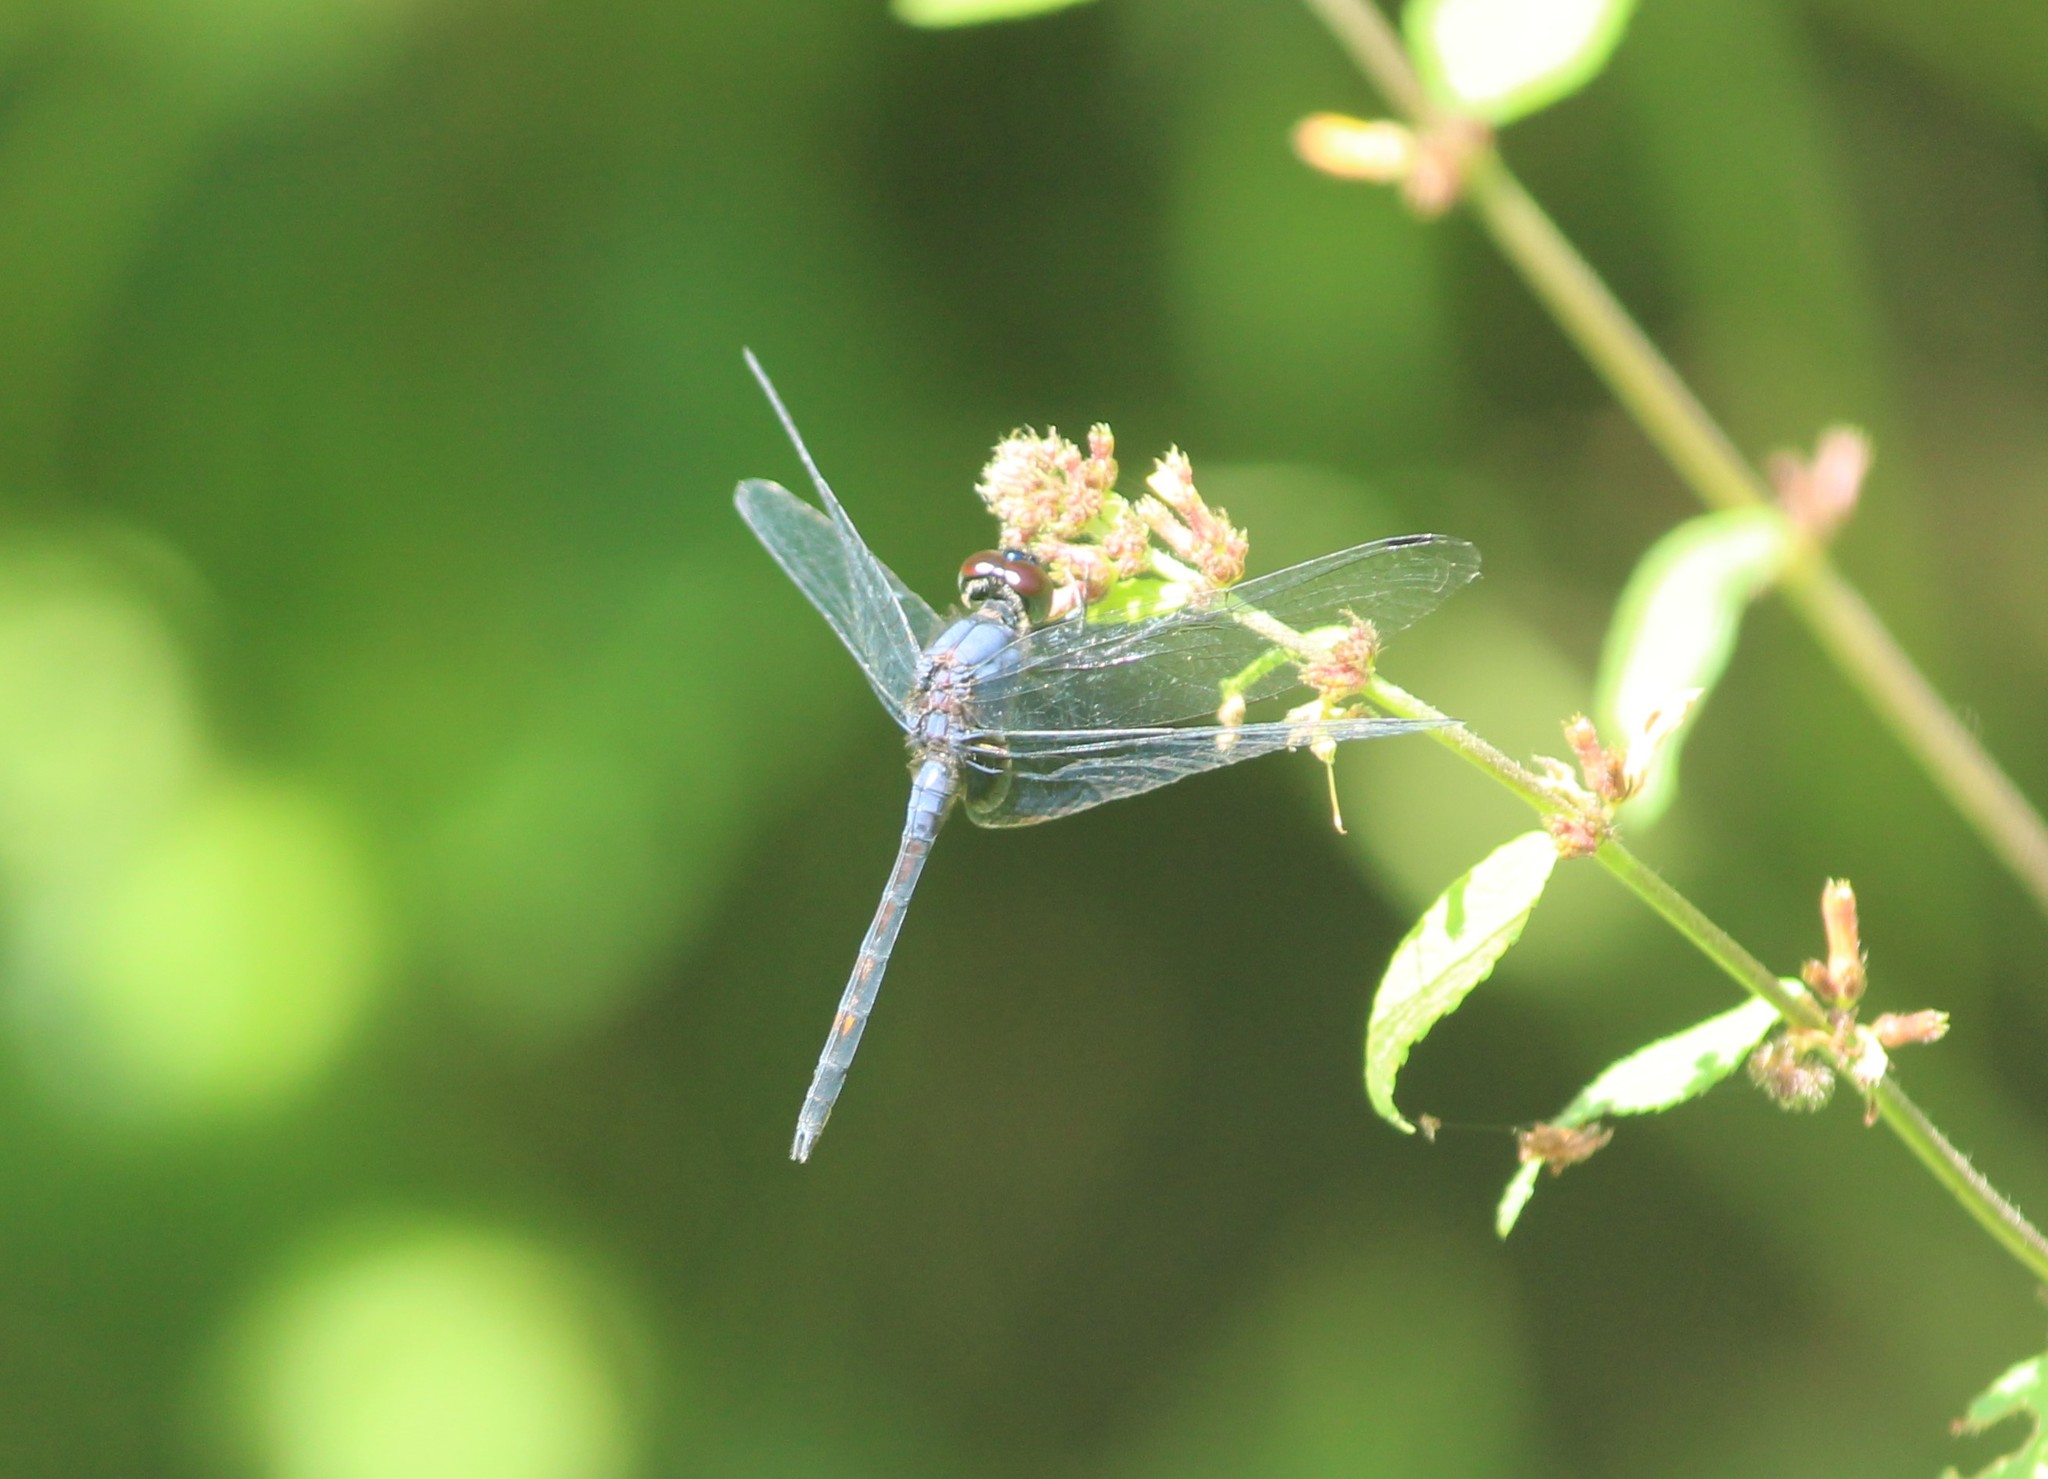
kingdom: Animalia
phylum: Arthropoda
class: Insecta
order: Odonata
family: Libellulidae
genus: Trithemis
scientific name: Trithemis festiva
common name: Indigo dropwing
